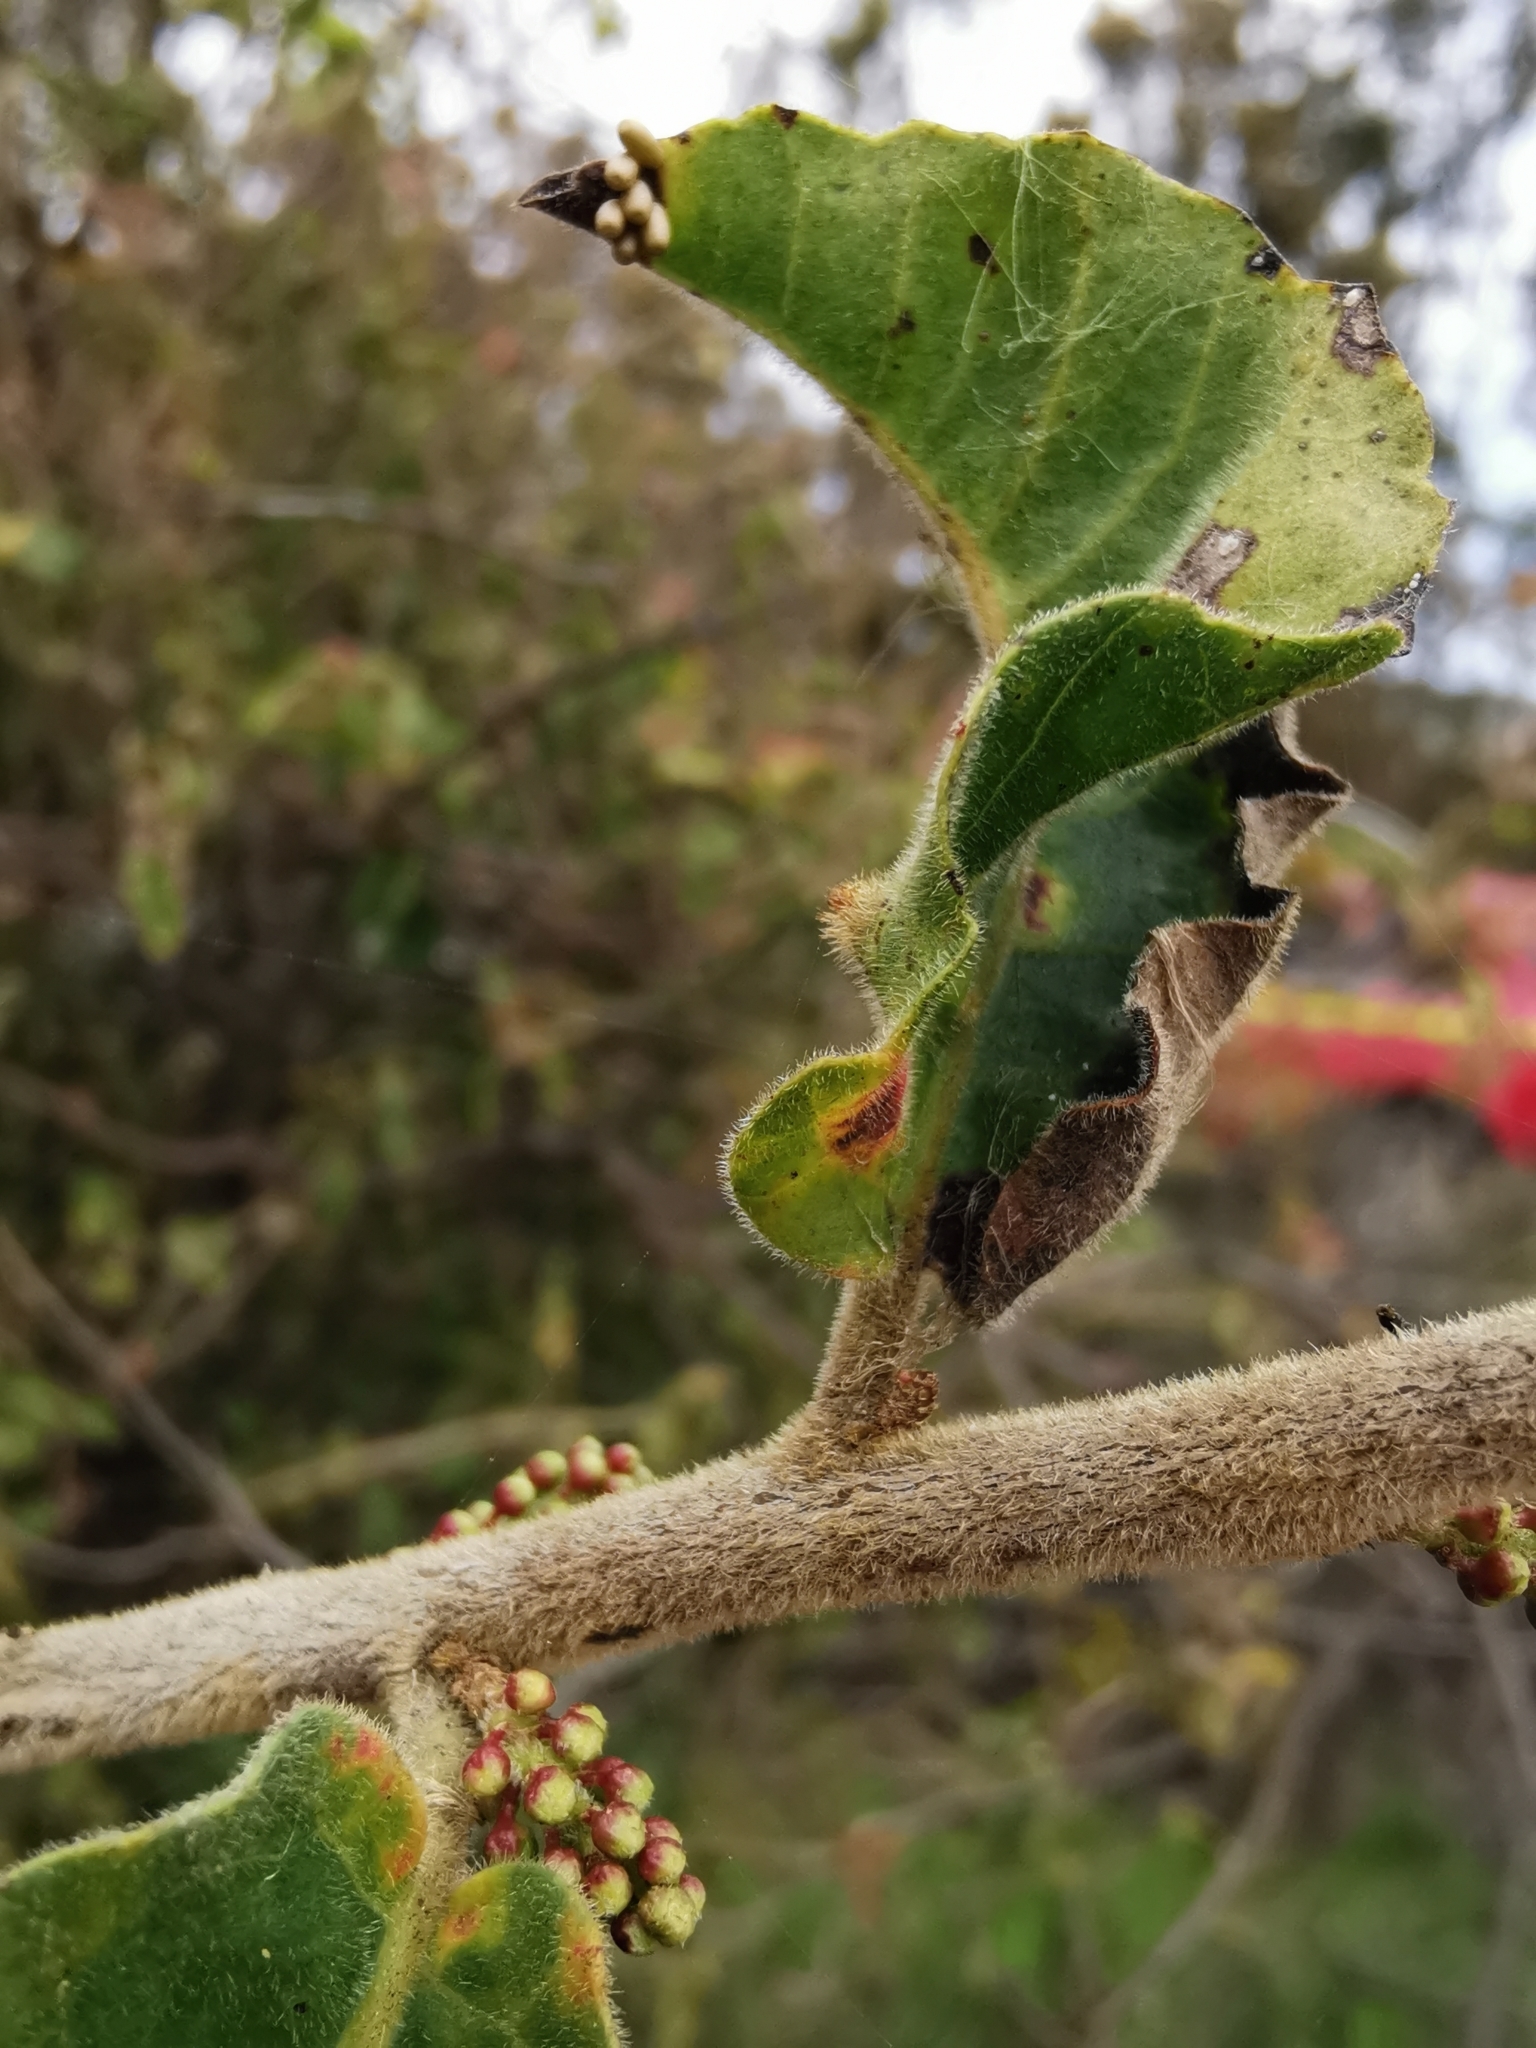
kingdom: Plantae
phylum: Tracheophyta
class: Magnoliopsida
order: Sapindales
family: Anacardiaceae
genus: Schinus
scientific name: Schinus latifolia
